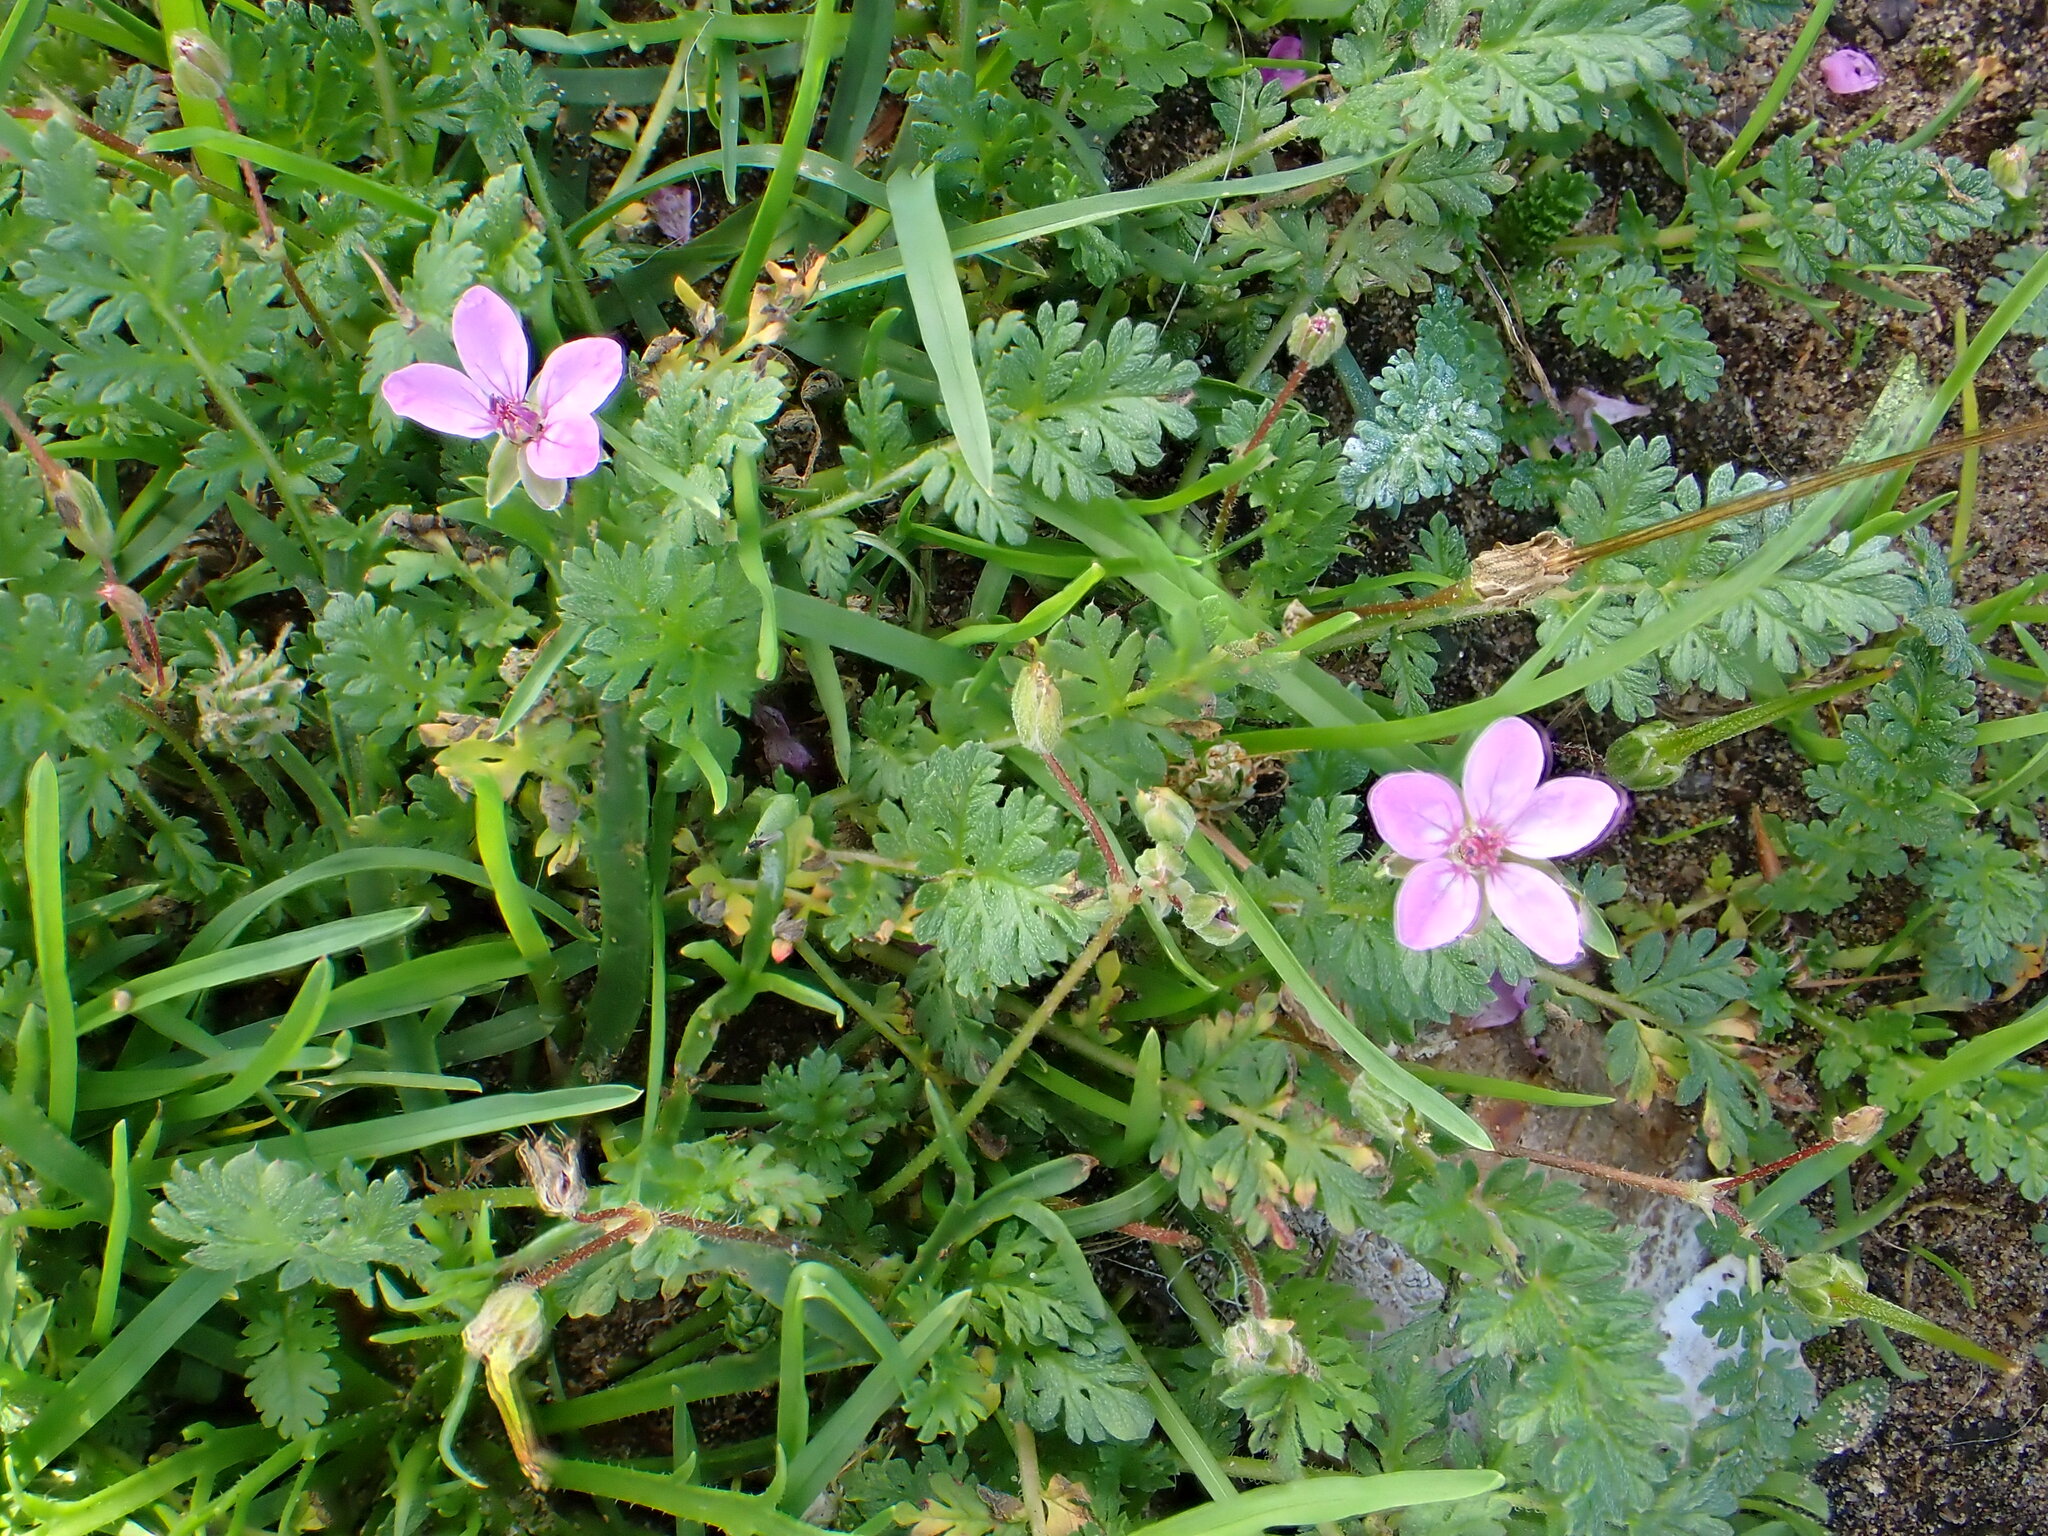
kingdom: Plantae
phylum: Tracheophyta
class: Magnoliopsida
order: Geraniales
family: Geraniaceae
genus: Erodium
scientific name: Erodium cicutarium
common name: Common stork's-bill
